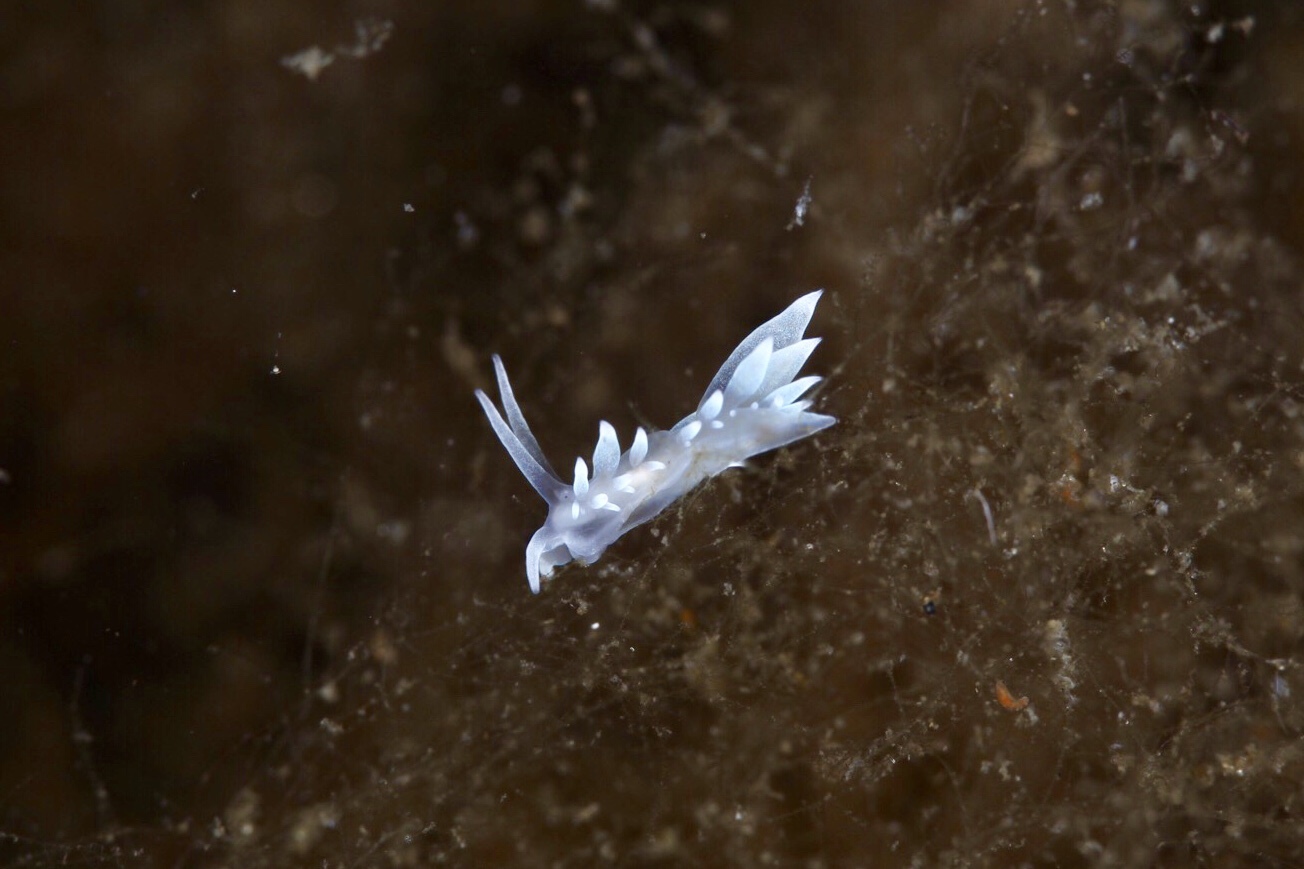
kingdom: Animalia
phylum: Mollusca
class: Gastropoda
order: Nudibranchia
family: Eubranchidae
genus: Amphorina
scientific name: Amphorina andra
